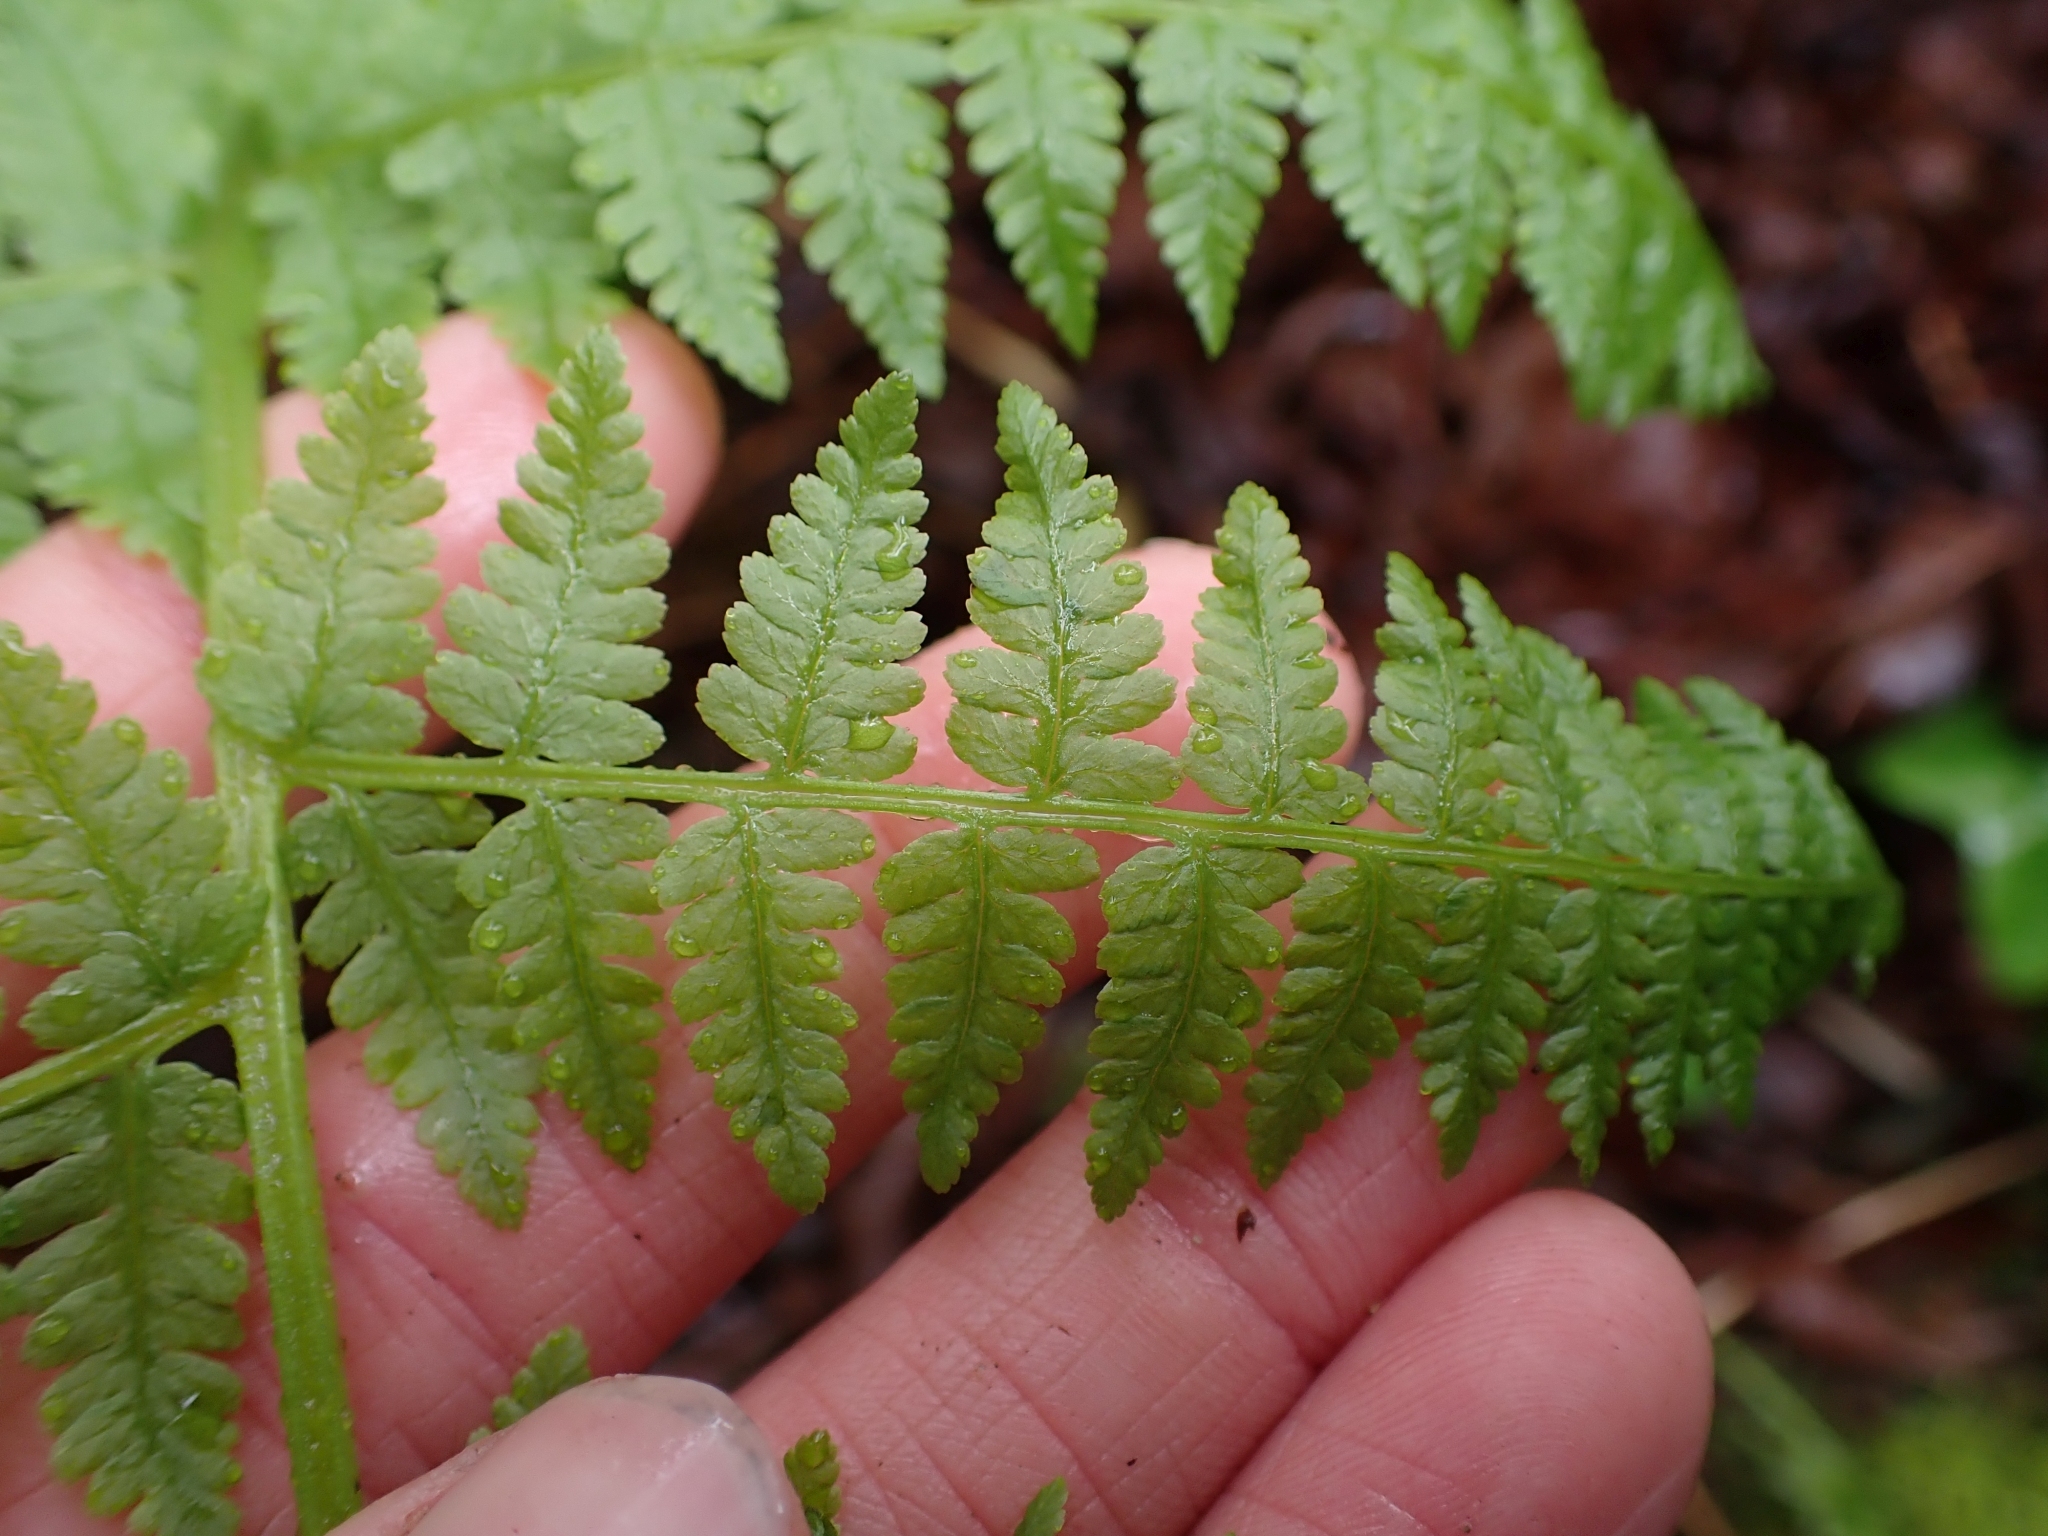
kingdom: Plantae
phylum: Tracheophyta
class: Polypodiopsida
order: Polypodiales
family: Athyriaceae
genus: Athyrium
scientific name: Athyrium filix-femina
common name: Lady fern
